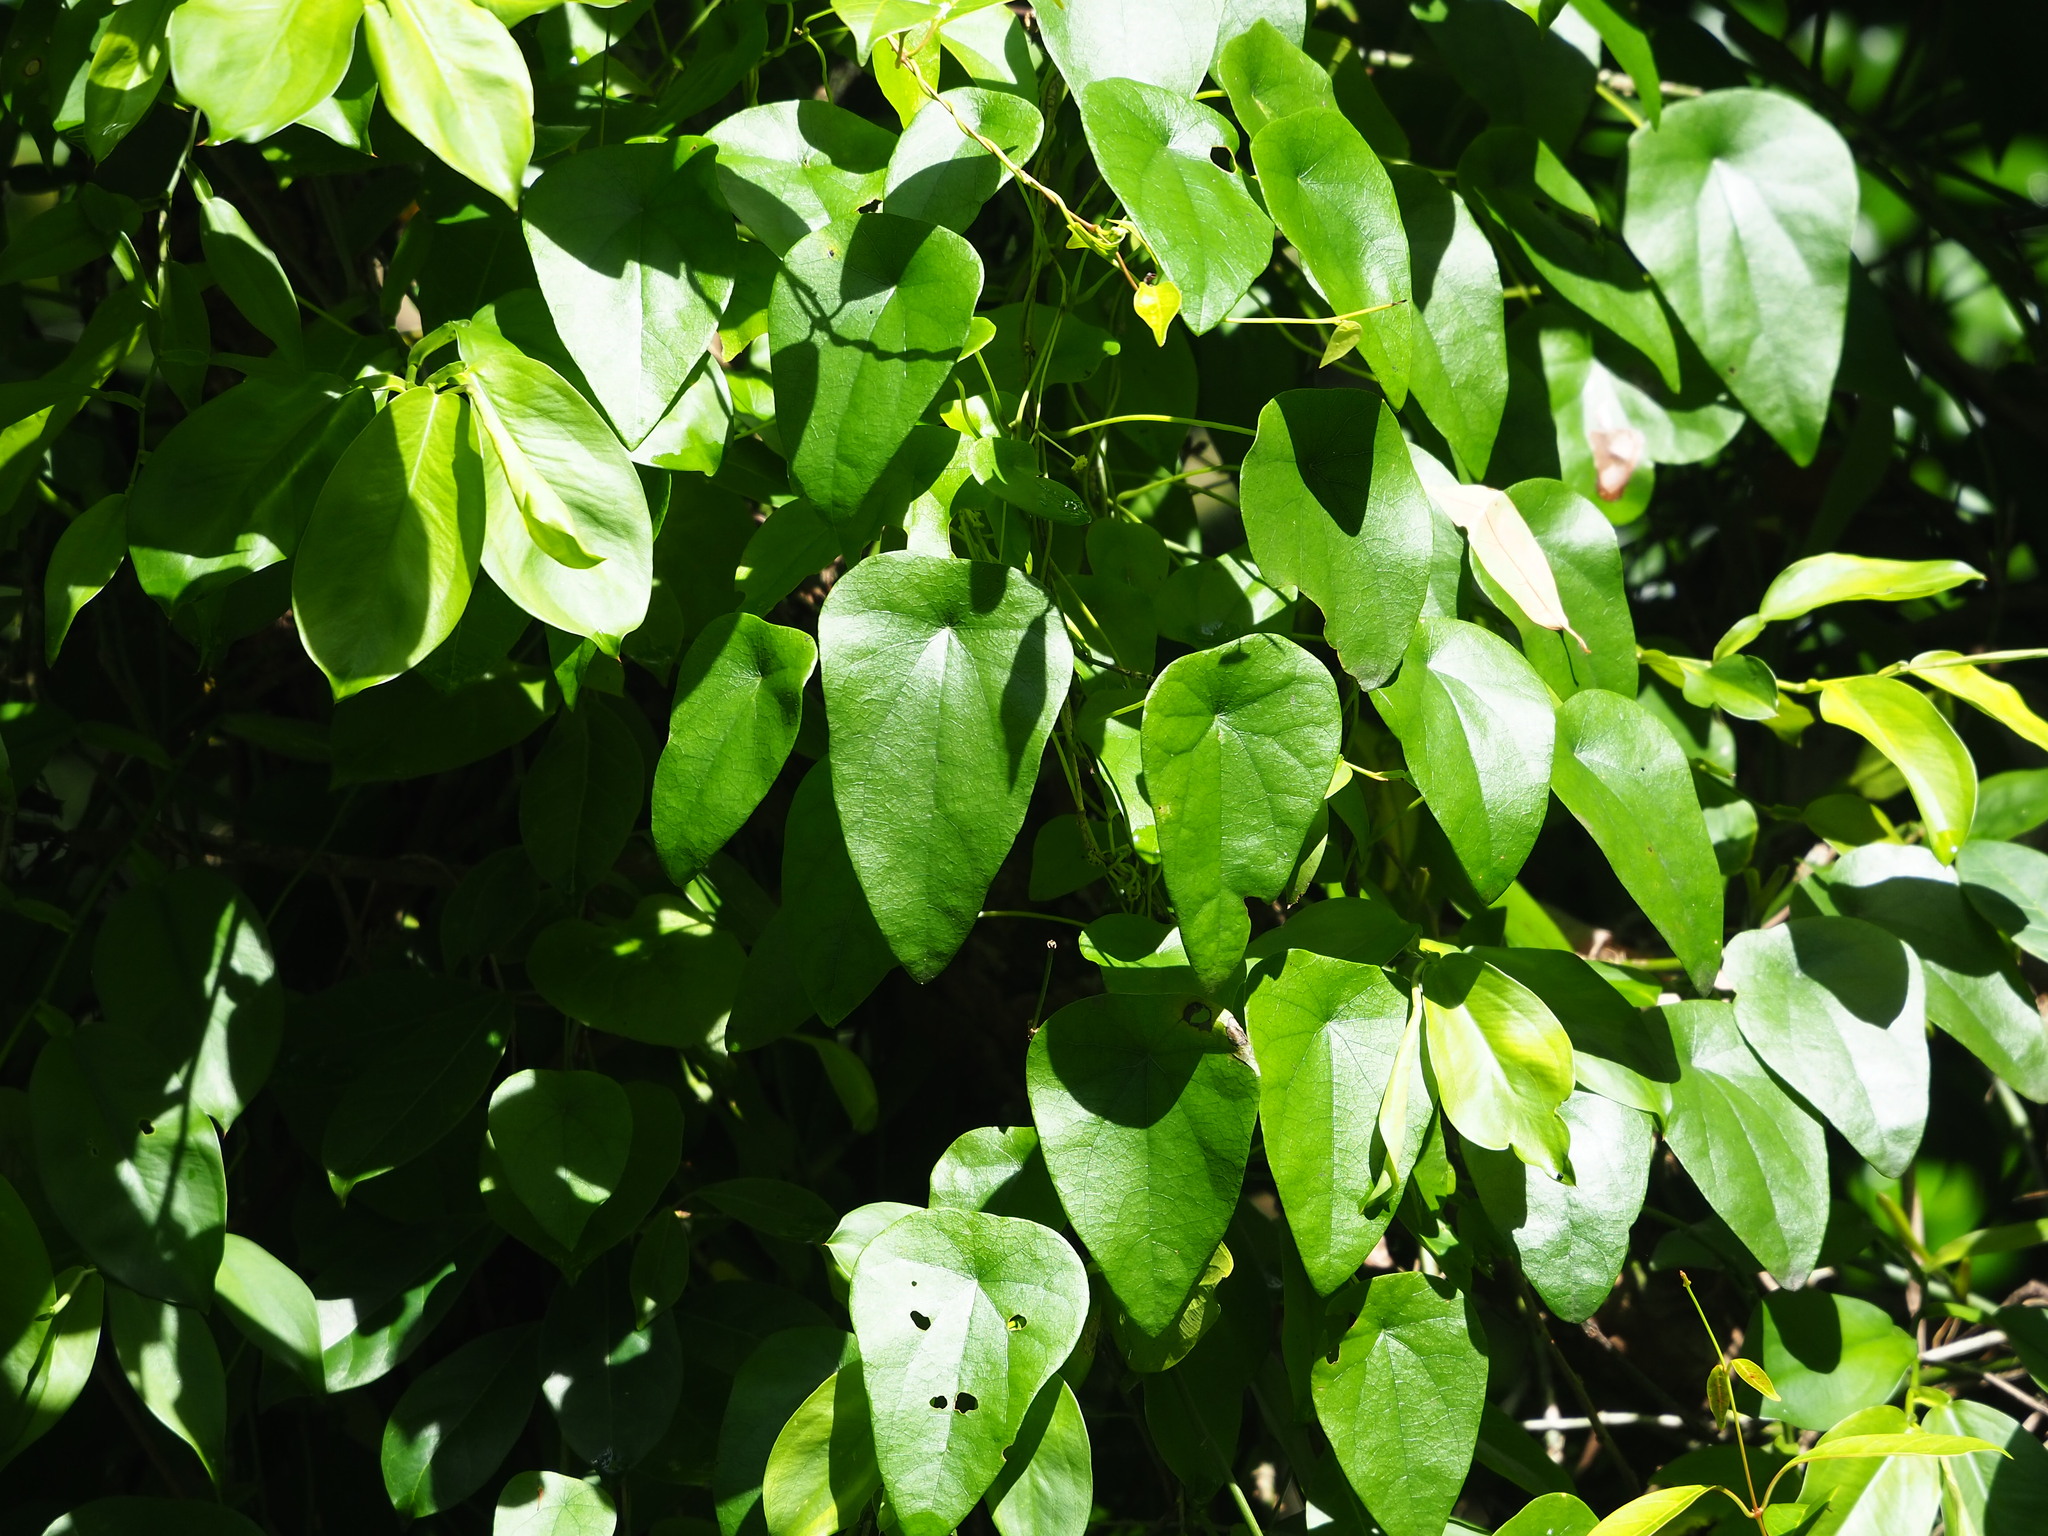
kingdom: Plantae
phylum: Tracheophyta
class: Magnoliopsida
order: Ranunculales
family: Menispermaceae
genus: Stephania
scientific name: Stephania longa
